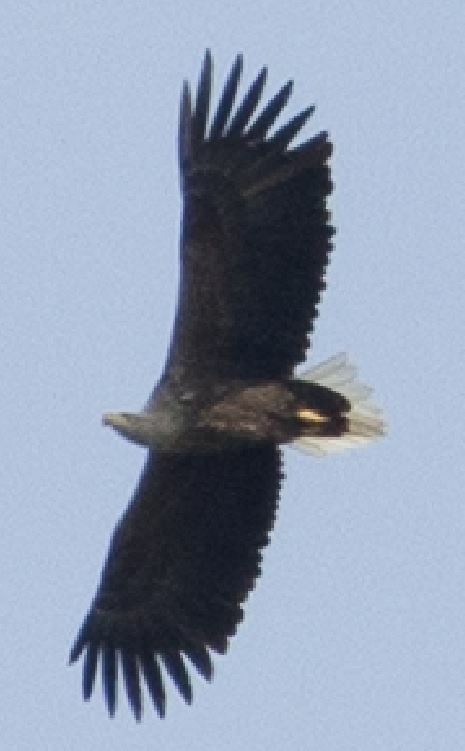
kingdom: Animalia
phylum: Chordata
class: Aves
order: Accipitriformes
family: Accipitridae
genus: Haliaeetus
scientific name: Haliaeetus albicilla
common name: White-tailed eagle
